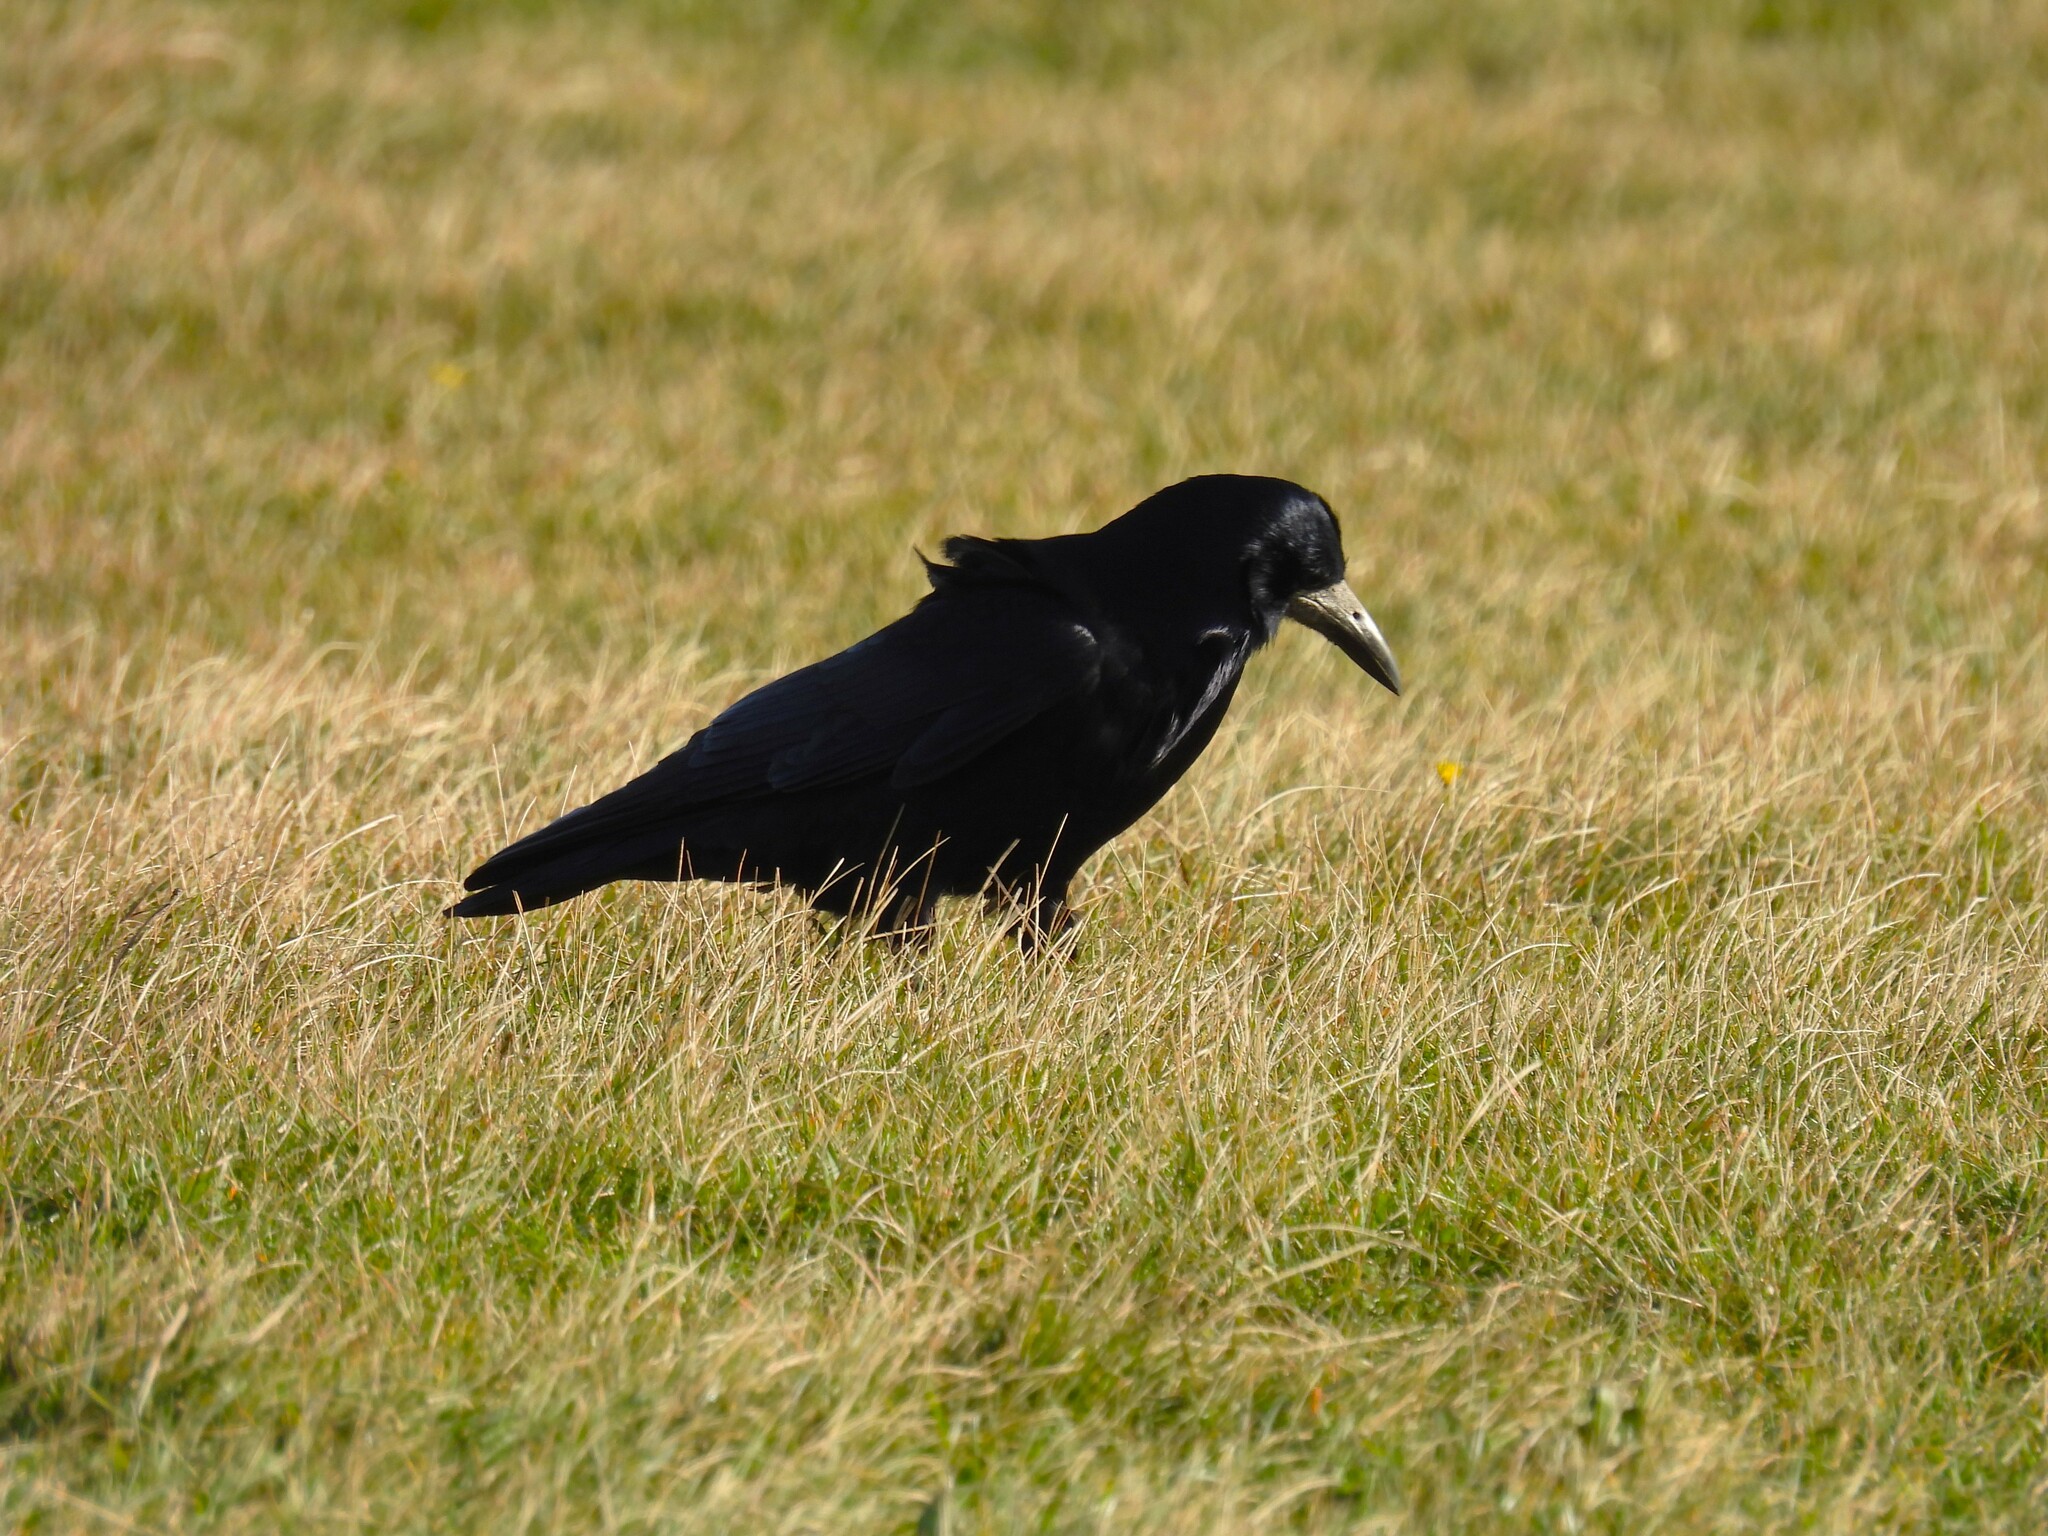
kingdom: Animalia
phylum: Chordata
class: Aves
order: Passeriformes
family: Corvidae
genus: Corvus
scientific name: Corvus frugilegus
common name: Rook
